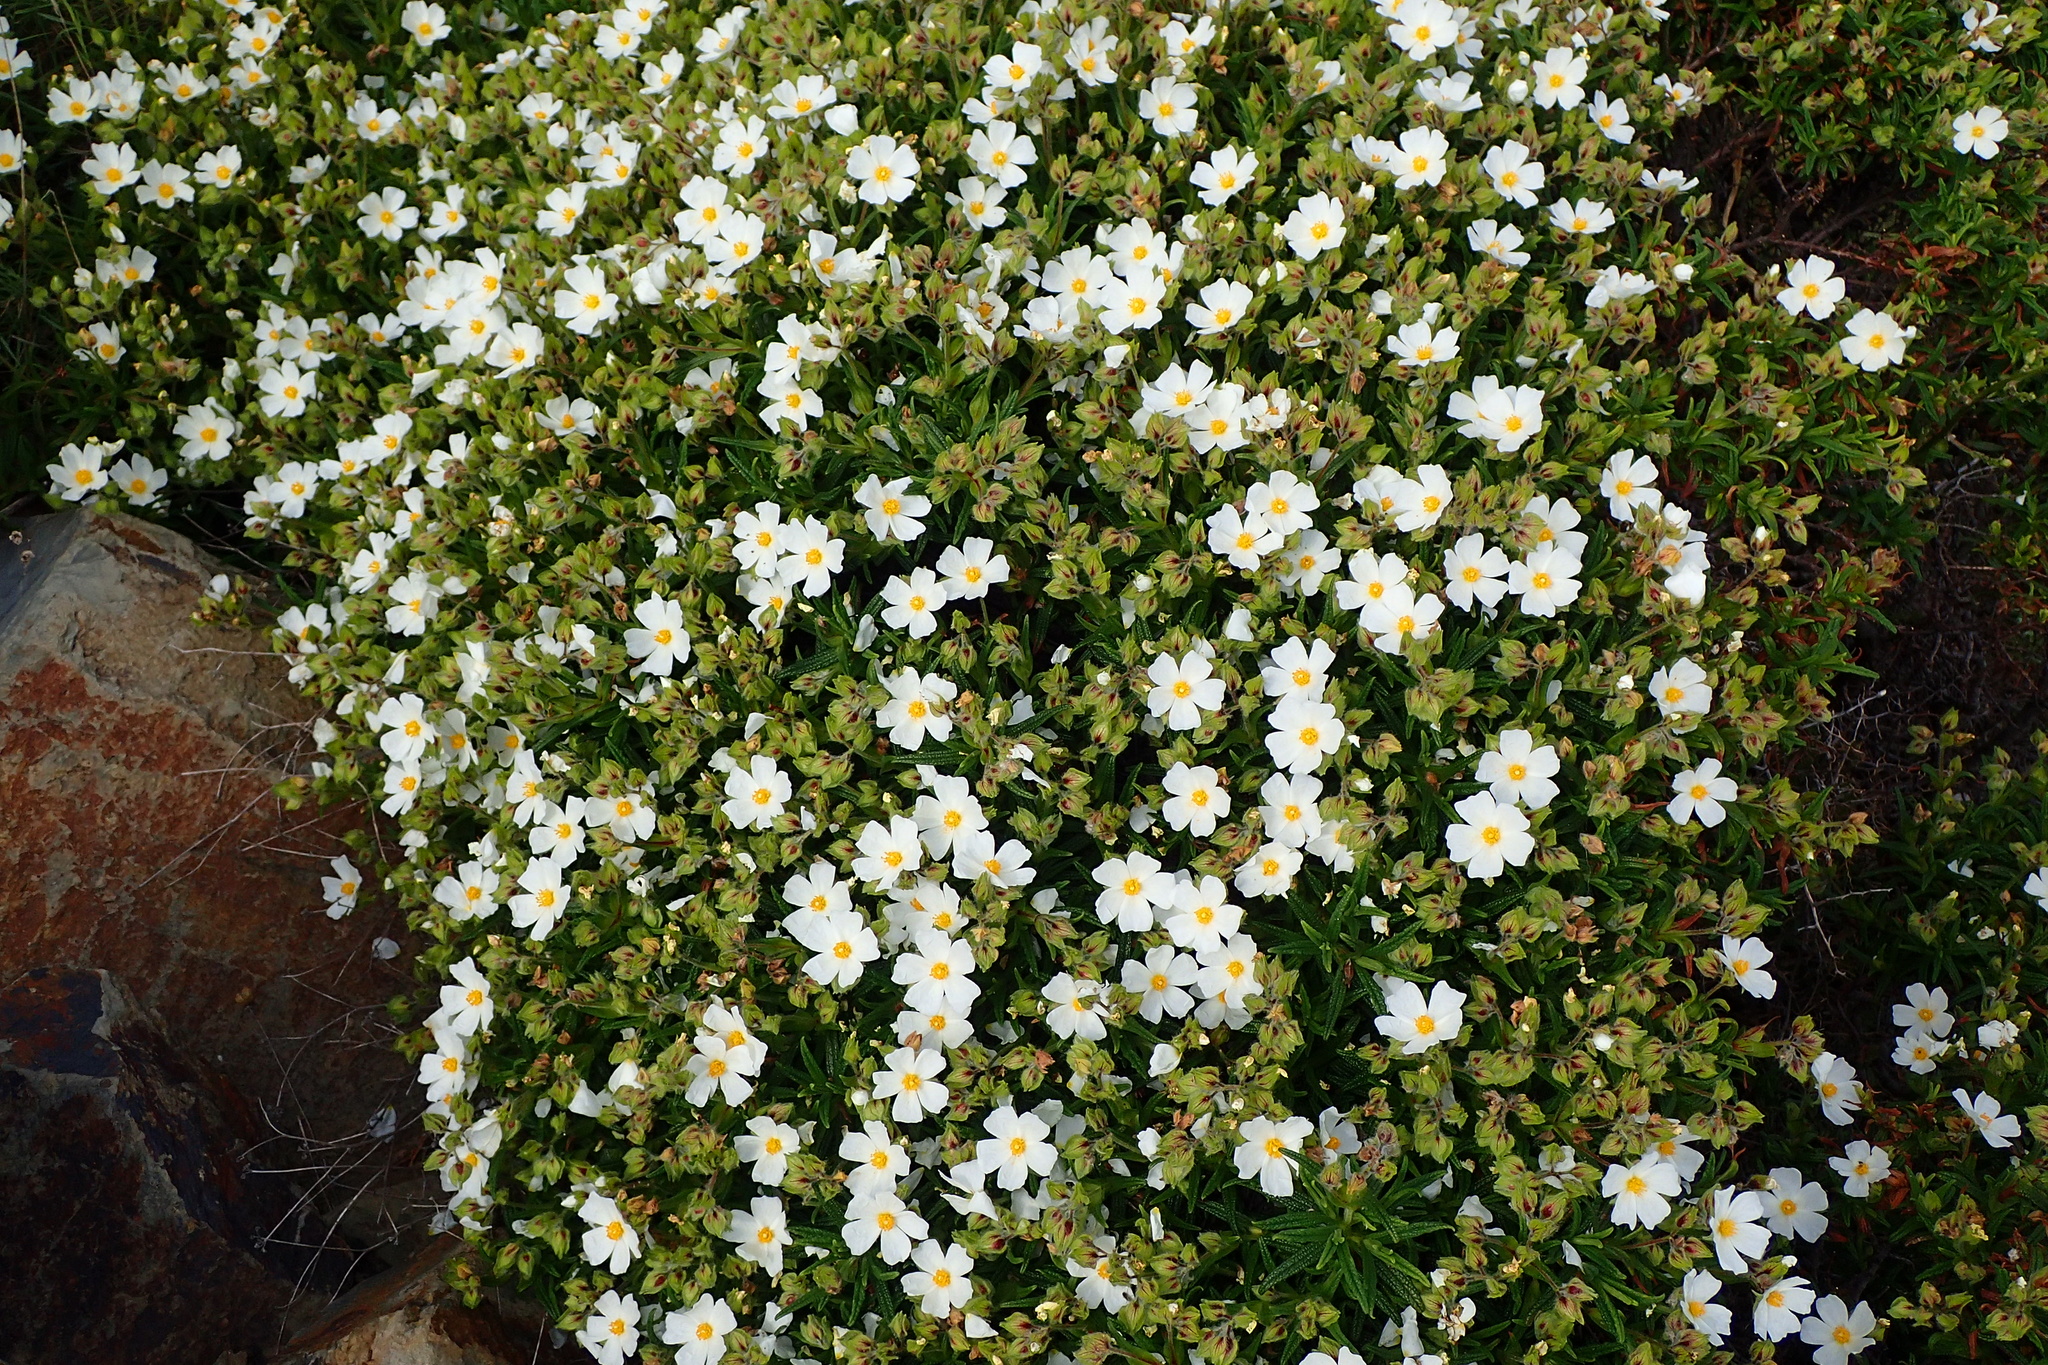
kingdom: Plantae
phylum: Tracheophyta
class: Magnoliopsida
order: Malvales
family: Cistaceae
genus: Cistus
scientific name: Cistus monspeliensis
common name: Montpelier cistus
